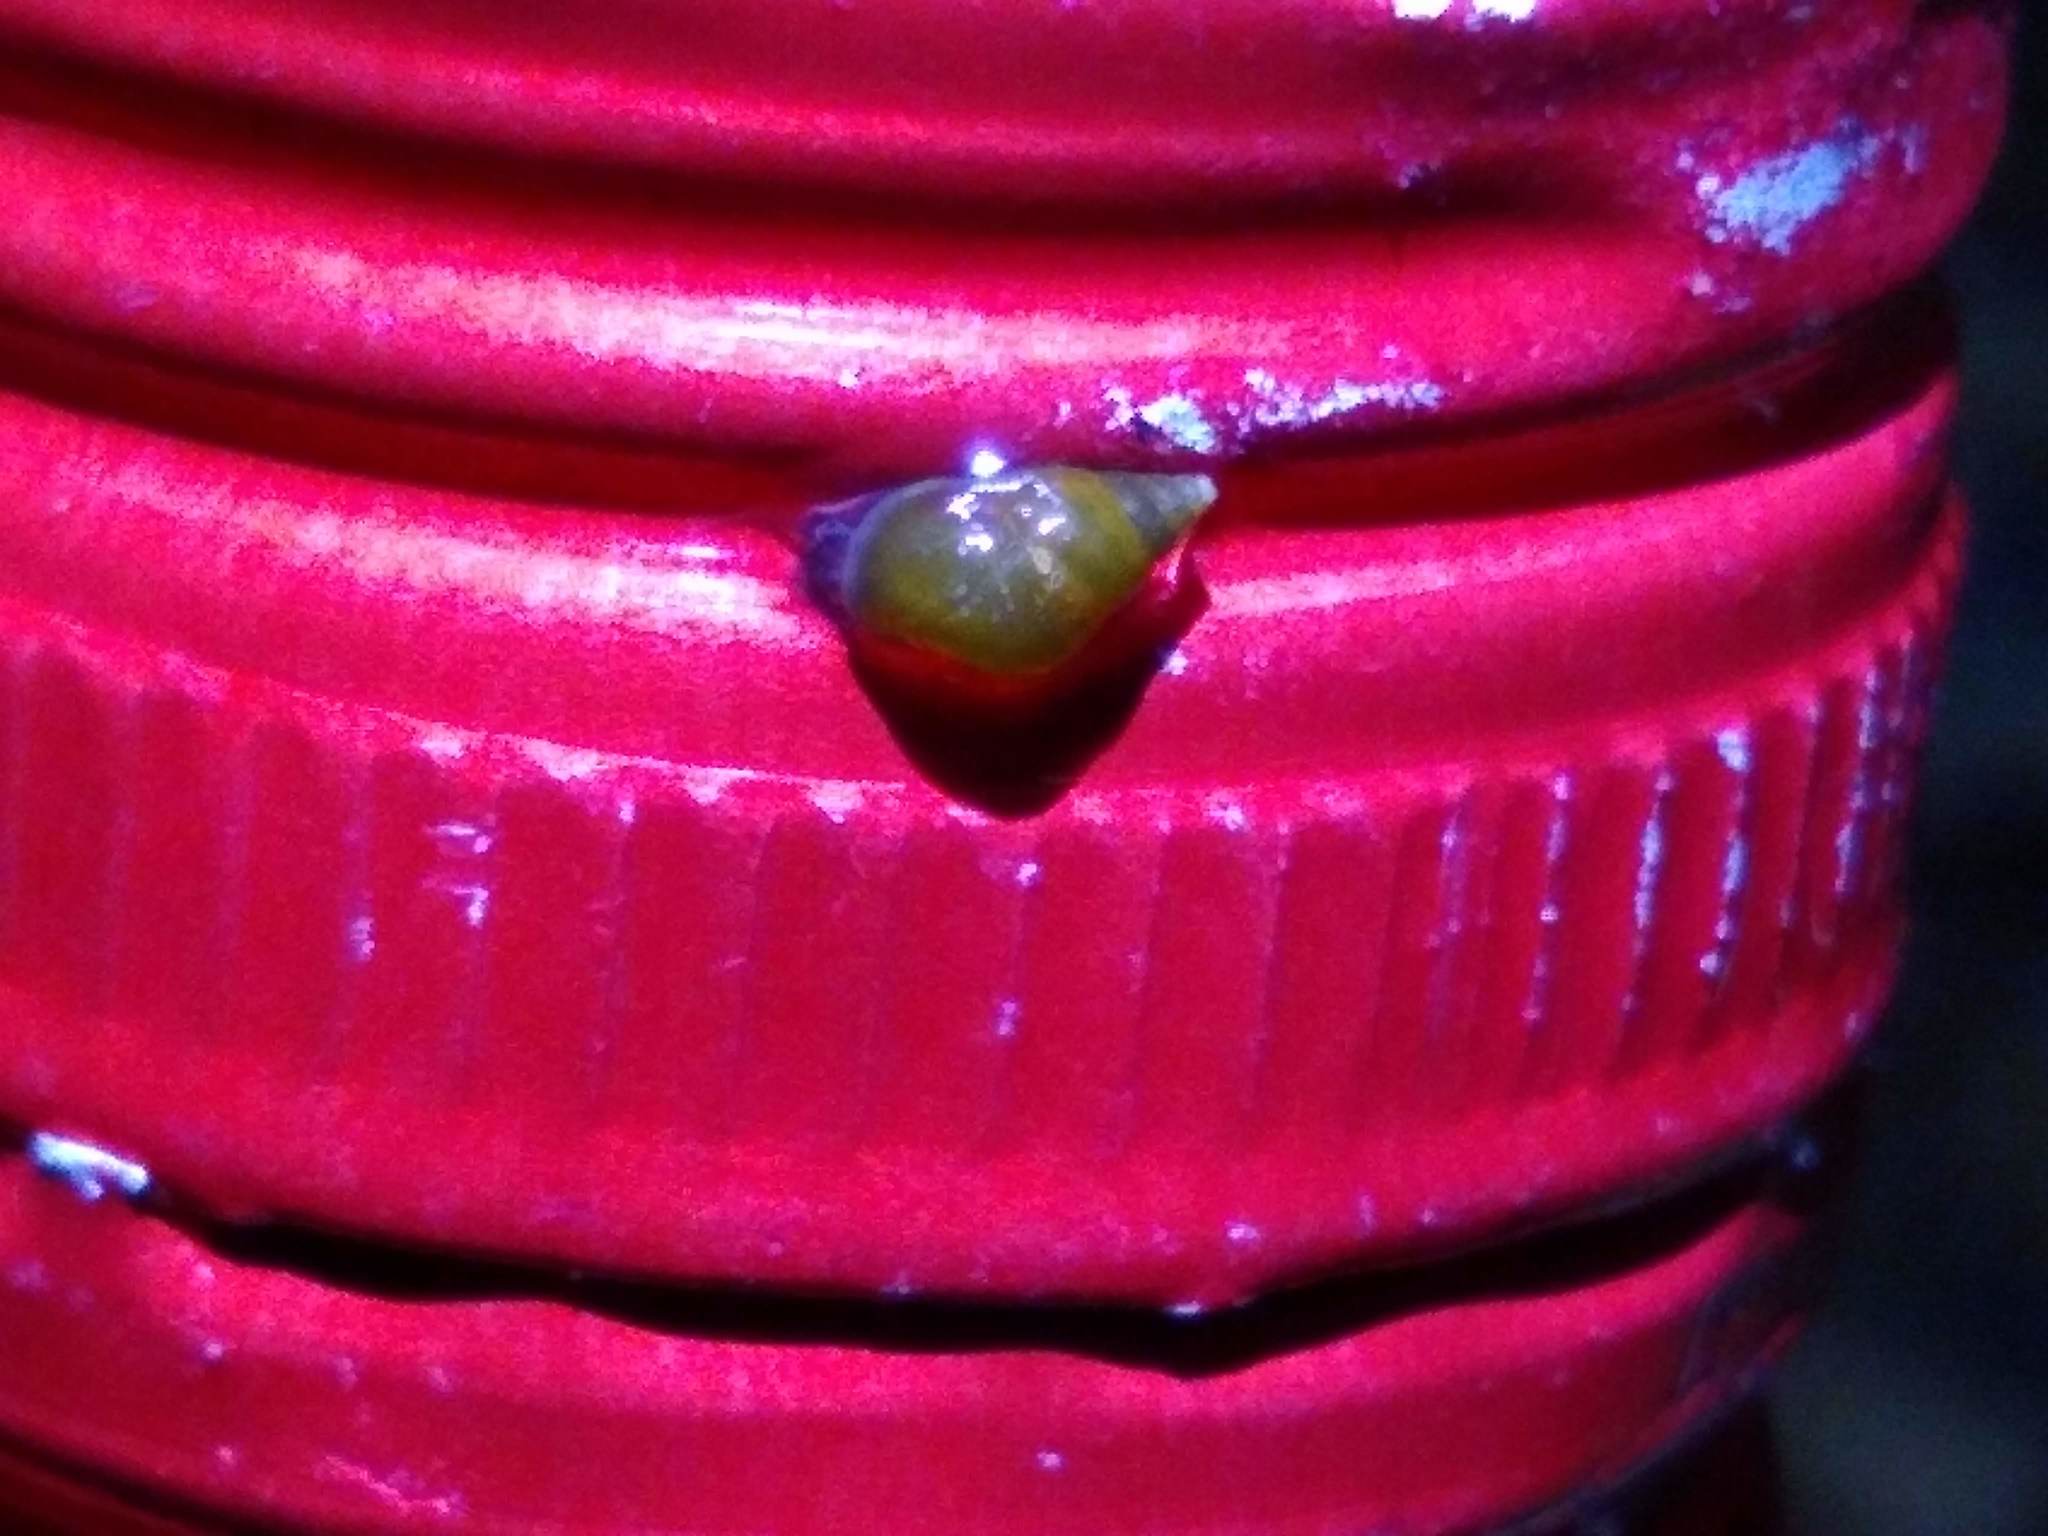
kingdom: Animalia
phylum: Mollusca
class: Gastropoda
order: Littorinimorpha
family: Tateidae
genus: Potamopyrgus
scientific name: Potamopyrgus antipodarum
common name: Jenkins' spire snail
